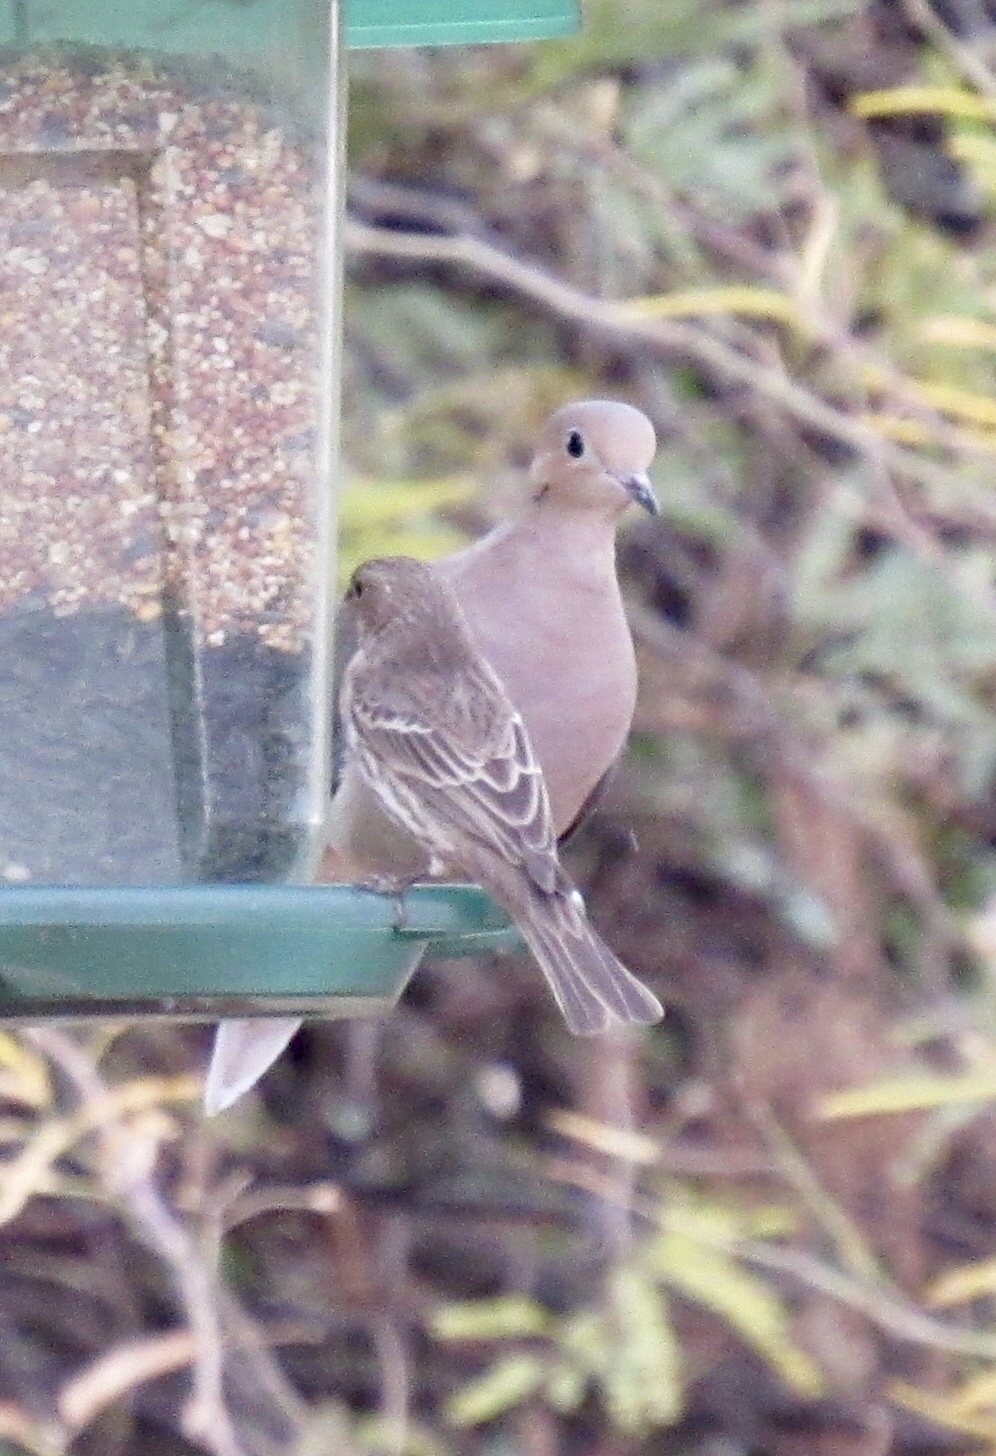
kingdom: Animalia
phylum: Chordata
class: Aves
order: Passeriformes
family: Fringillidae
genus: Haemorhous
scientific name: Haemorhous mexicanus
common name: House finch
